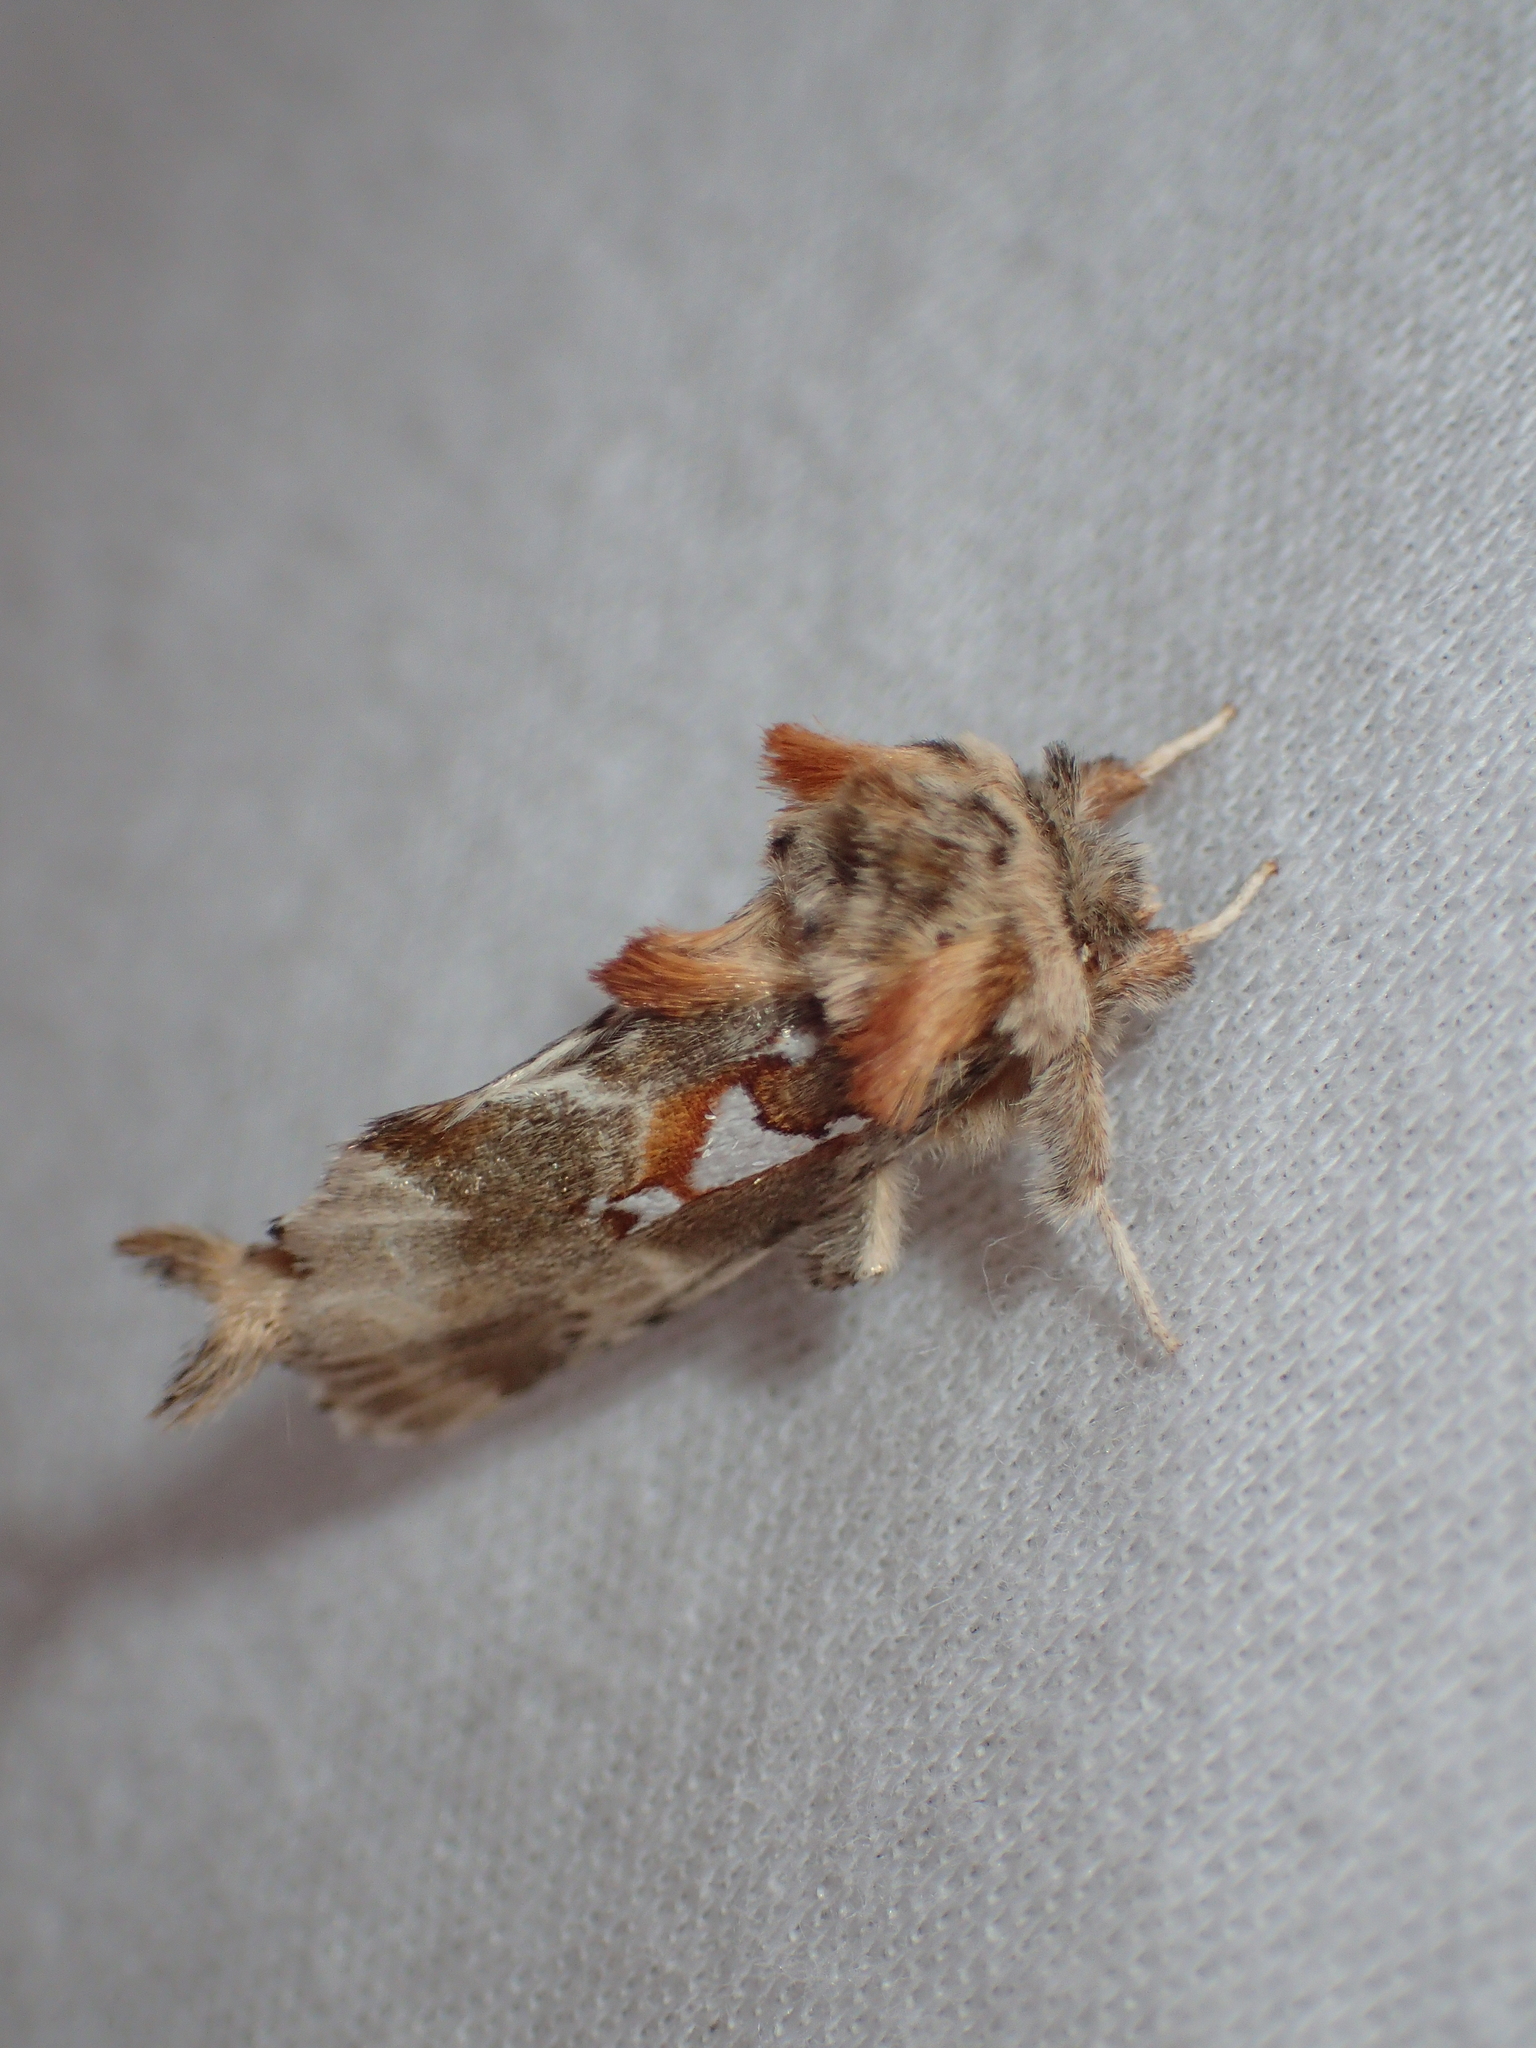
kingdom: Animalia
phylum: Arthropoda
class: Insecta
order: Lepidoptera
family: Notodontidae
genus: Spatalia
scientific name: Spatalia argentina
